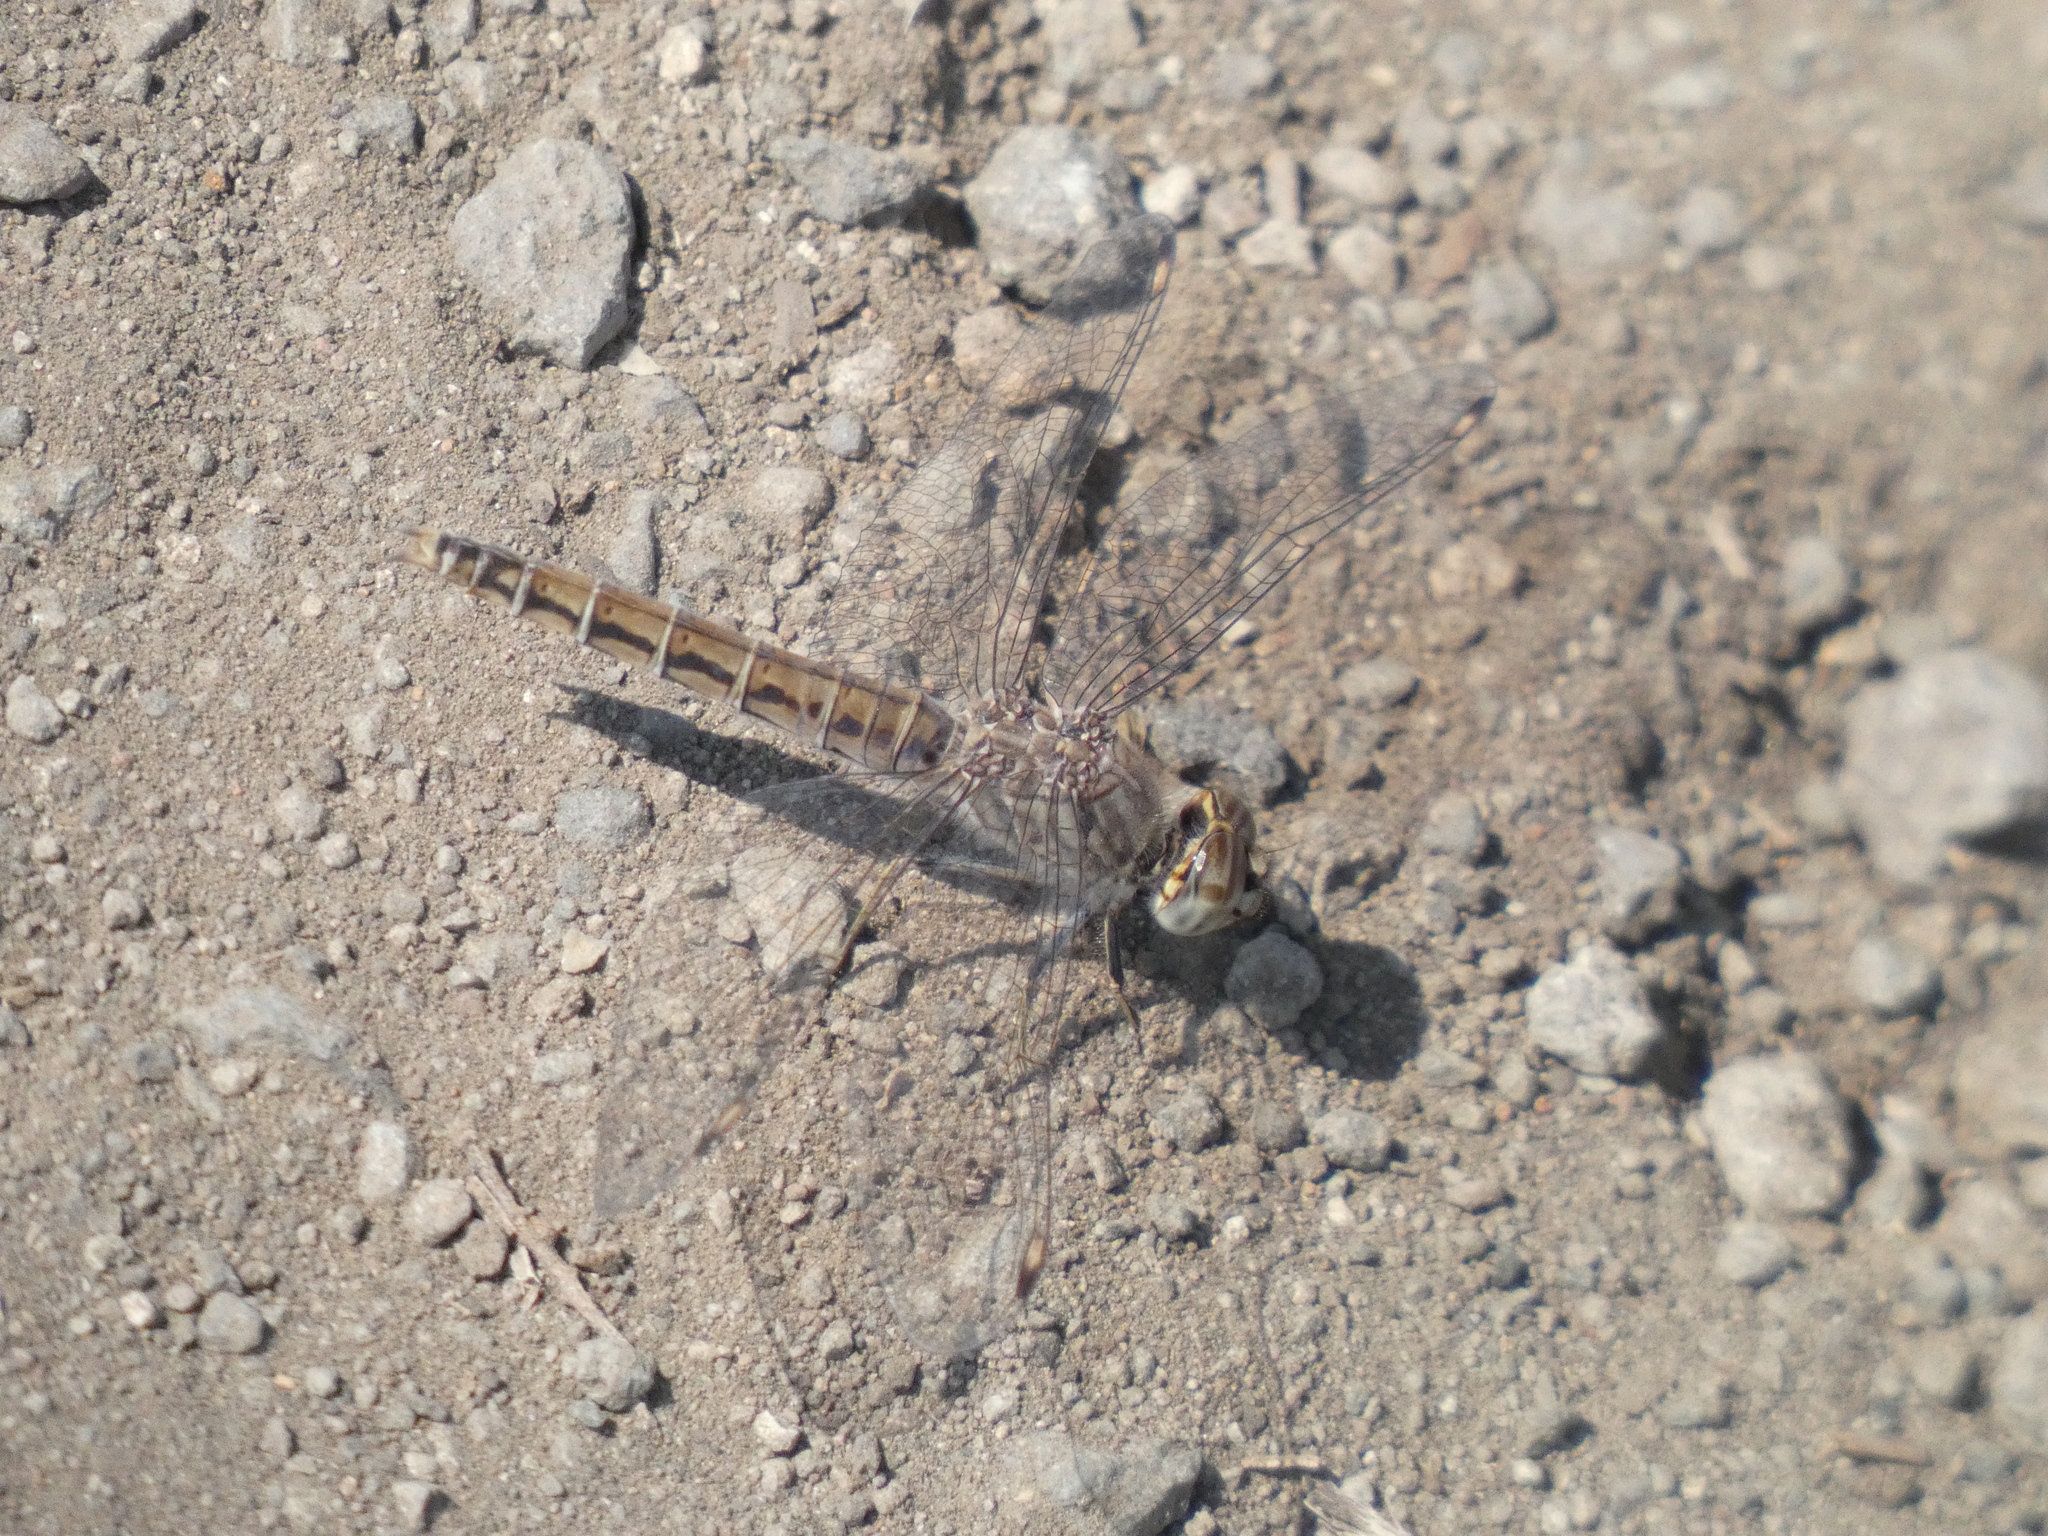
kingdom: Animalia
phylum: Arthropoda
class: Insecta
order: Odonata
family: Libellulidae
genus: Brachythemis
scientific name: Brachythemis leucosticta
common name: Banded groundling
